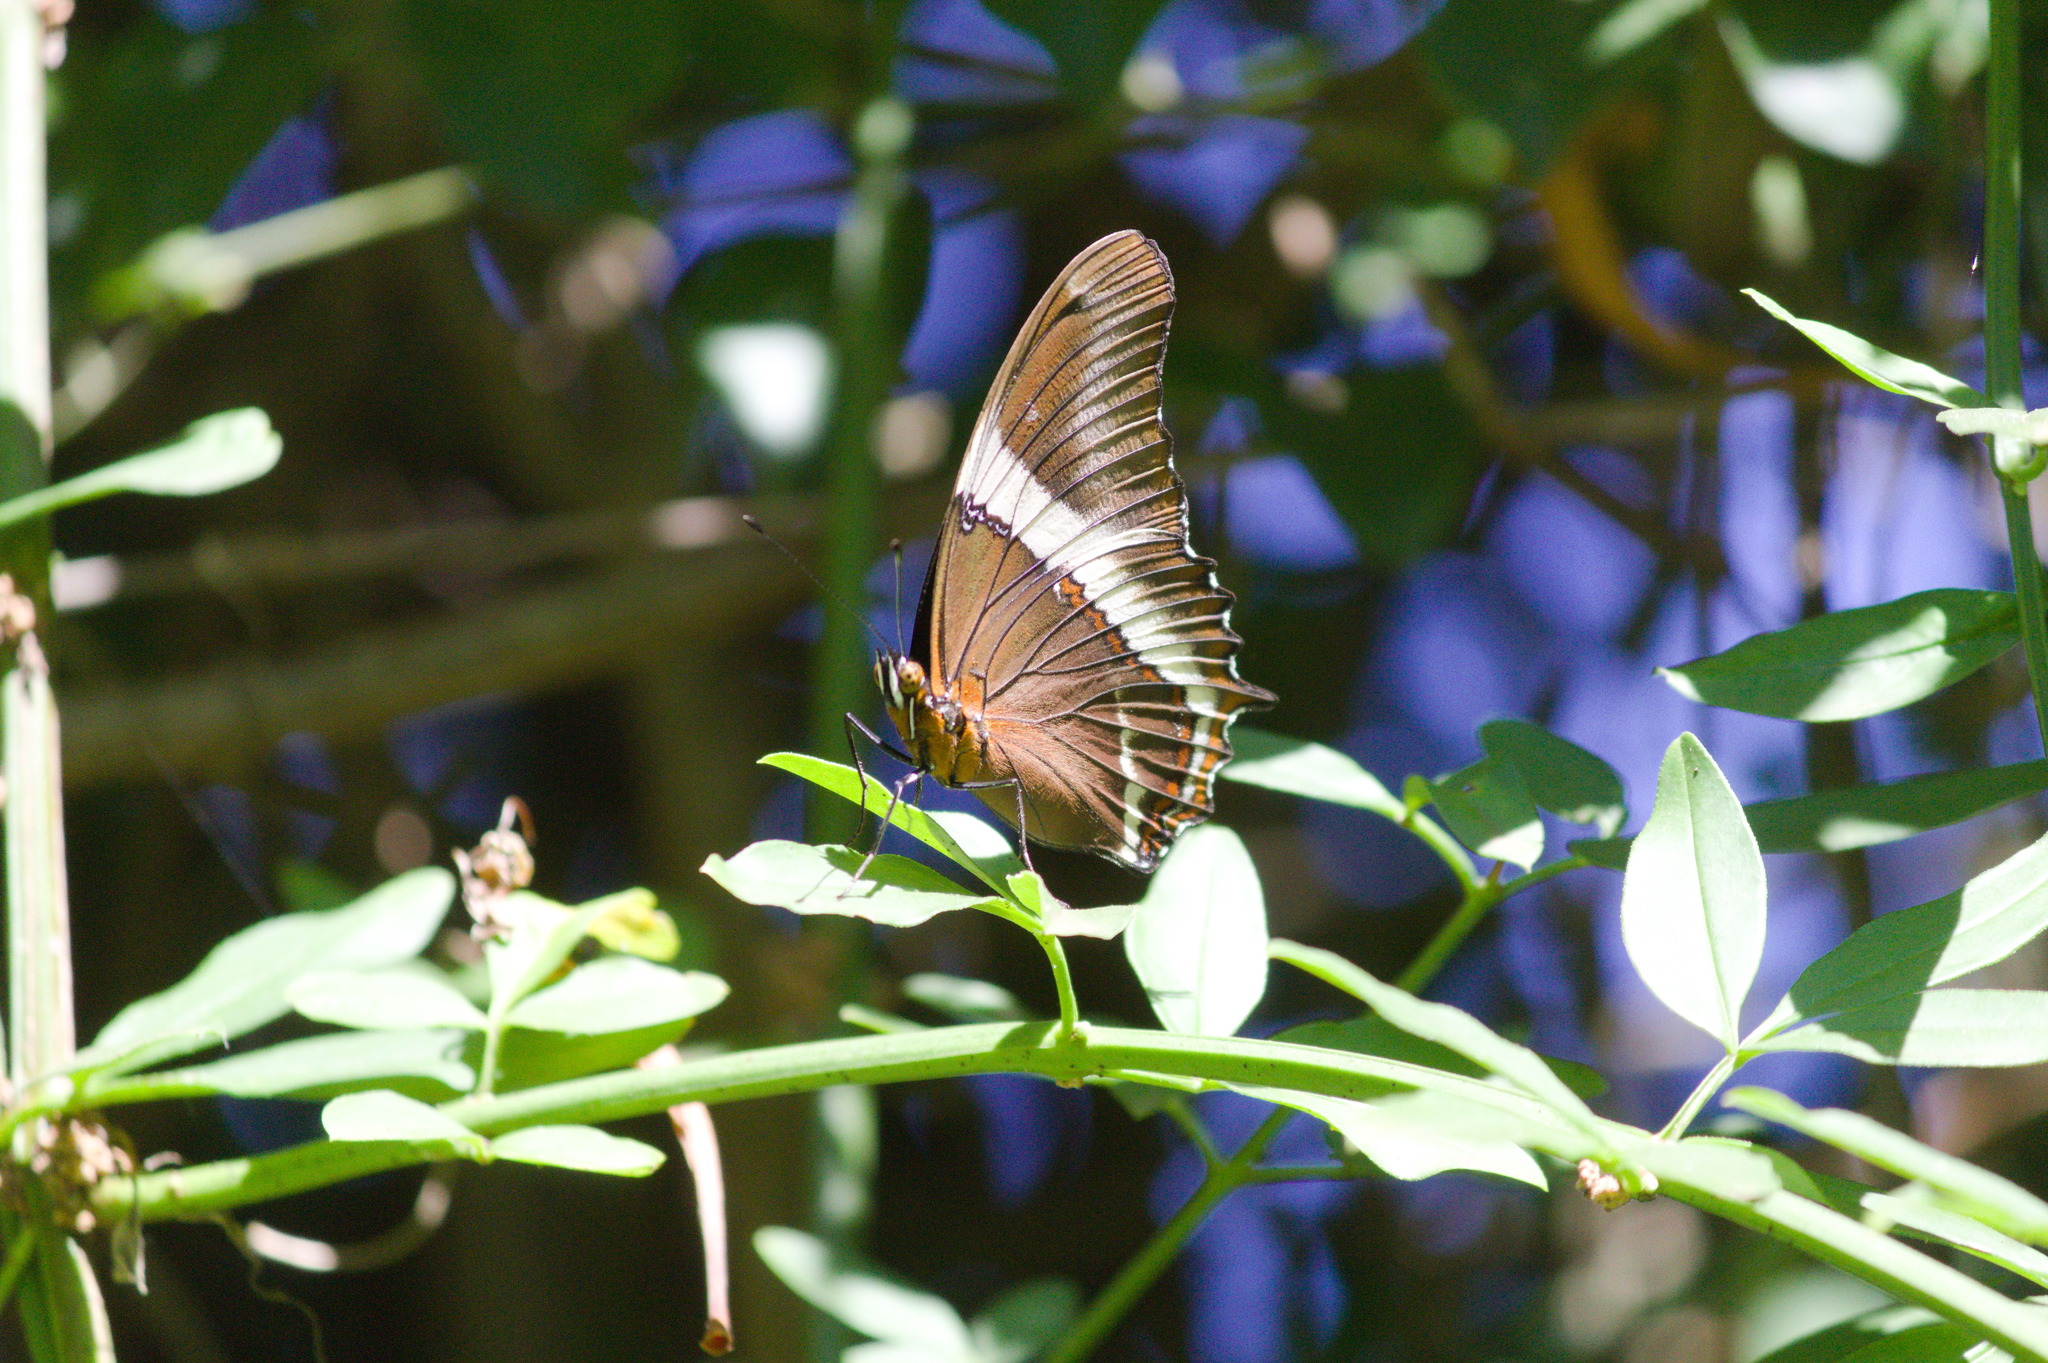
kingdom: Animalia
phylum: Arthropoda
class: Insecta
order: Lepidoptera
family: Nymphalidae
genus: Siproeta
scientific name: Siproeta epaphus
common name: Rusty-tipped page
